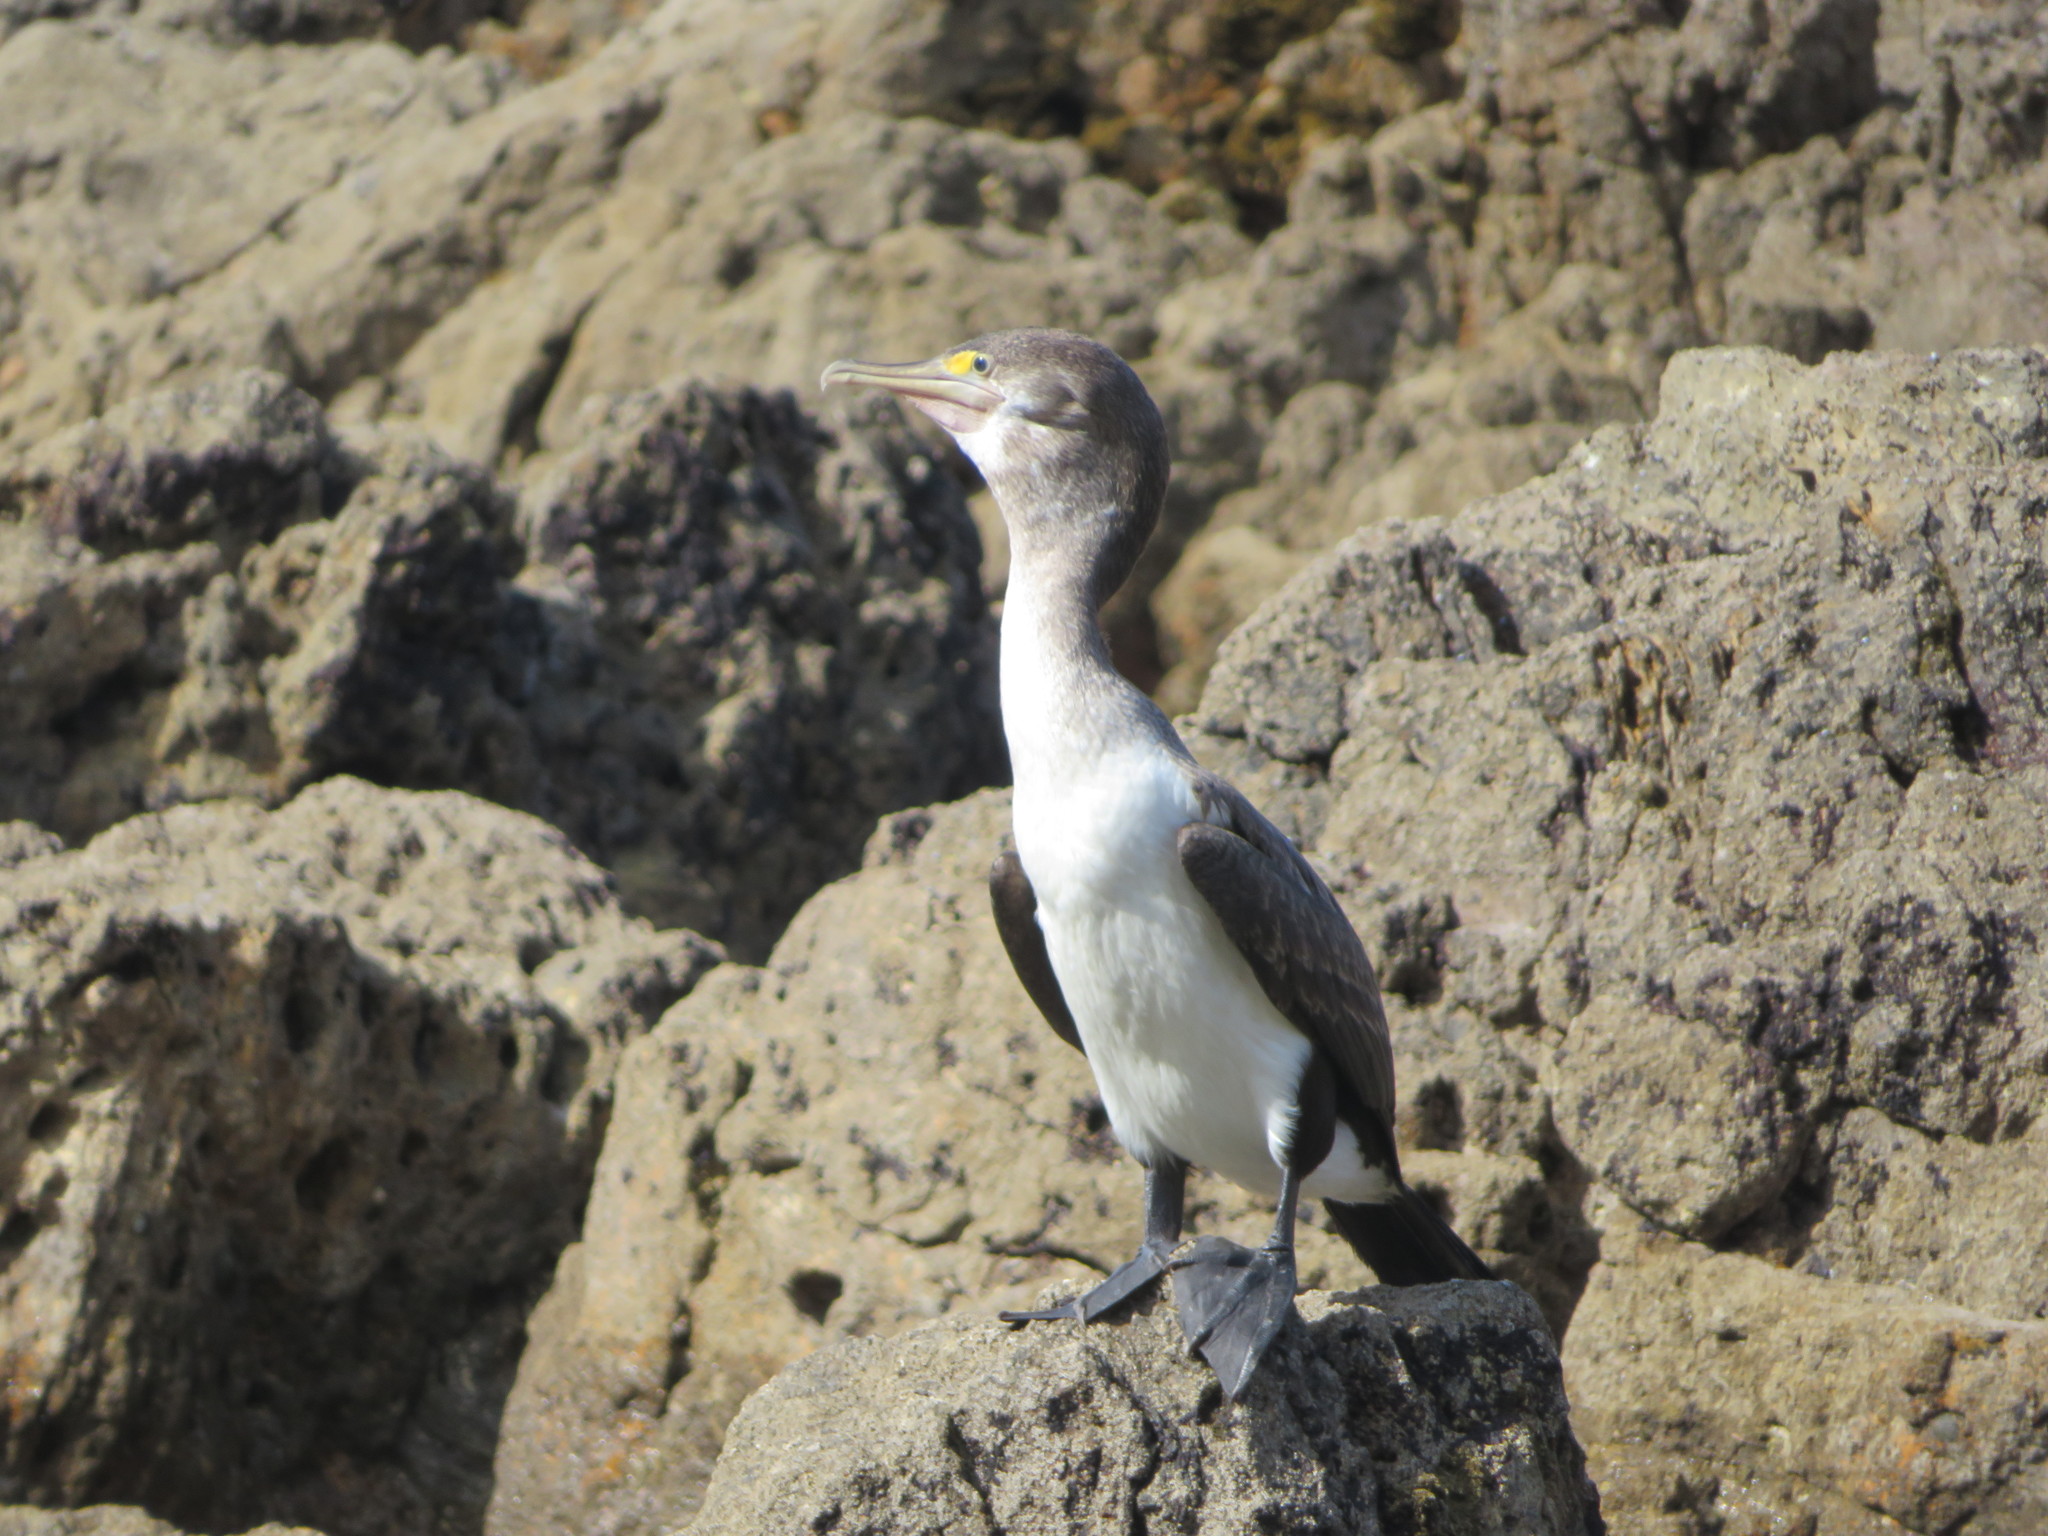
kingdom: Animalia
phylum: Chordata
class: Aves
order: Suliformes
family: Phalacrocoracidae
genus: Phalacrocorax
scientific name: Phalacrocorax varius
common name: Pied cormorant
